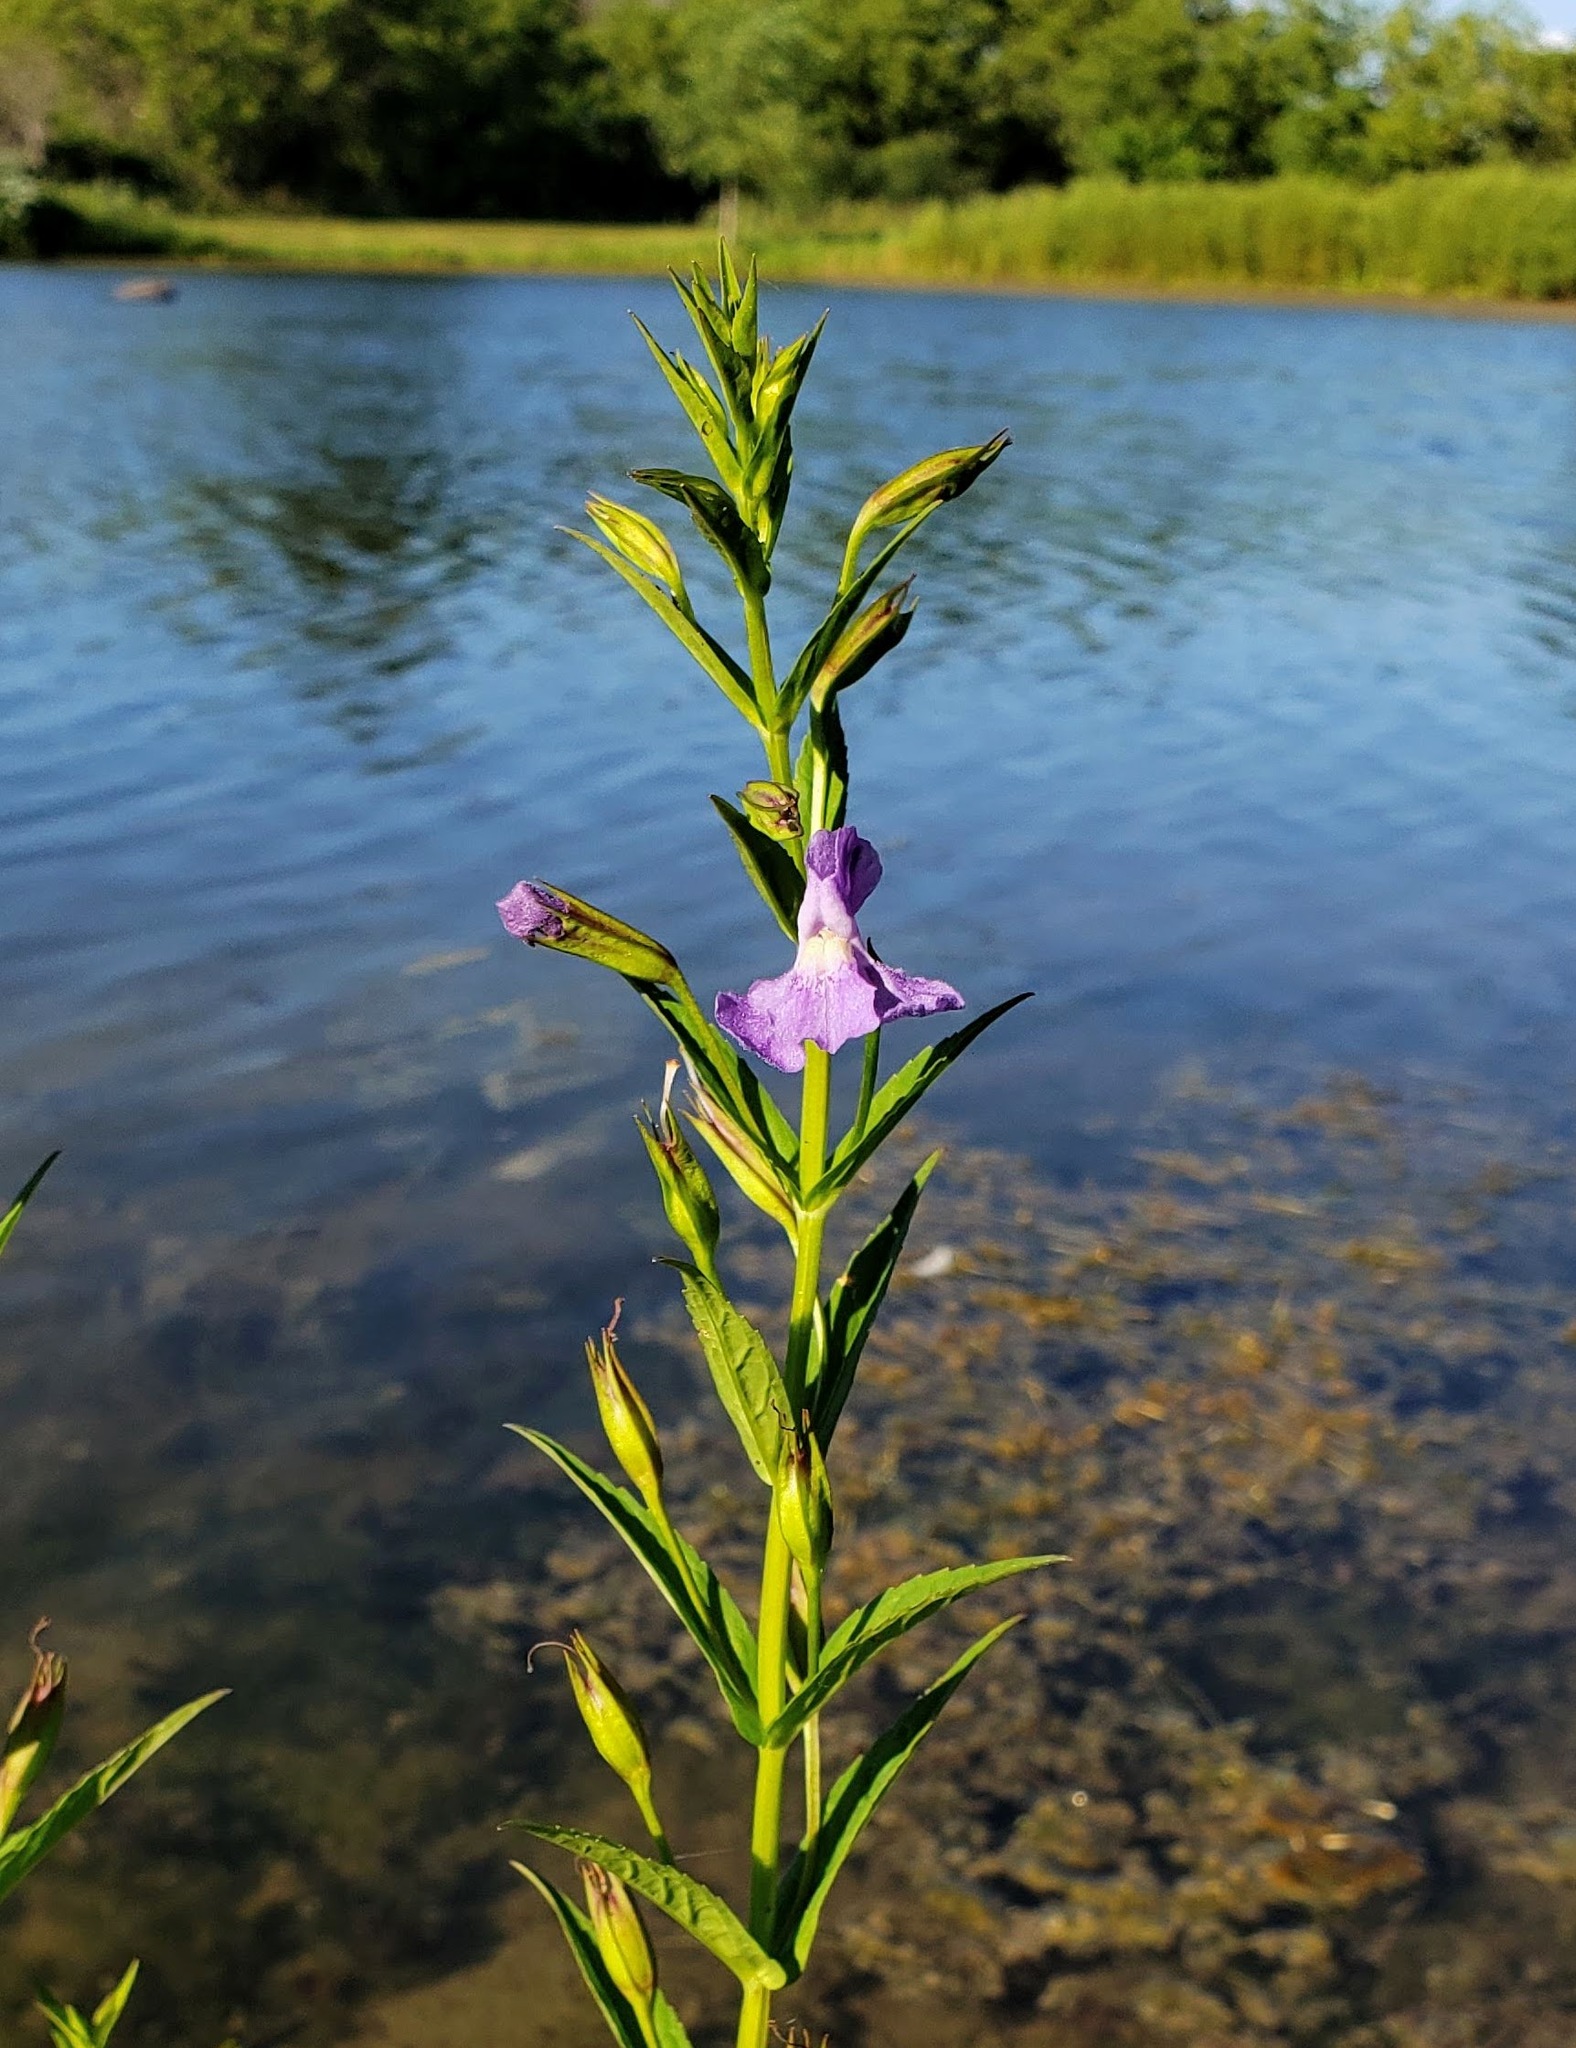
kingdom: Plantae
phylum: Tracheophyta
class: Magnoliopsida
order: Lamiales
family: Phrymaceae
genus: Mimulus
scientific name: Mimulus ringens
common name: Allegheny monkeyflower
